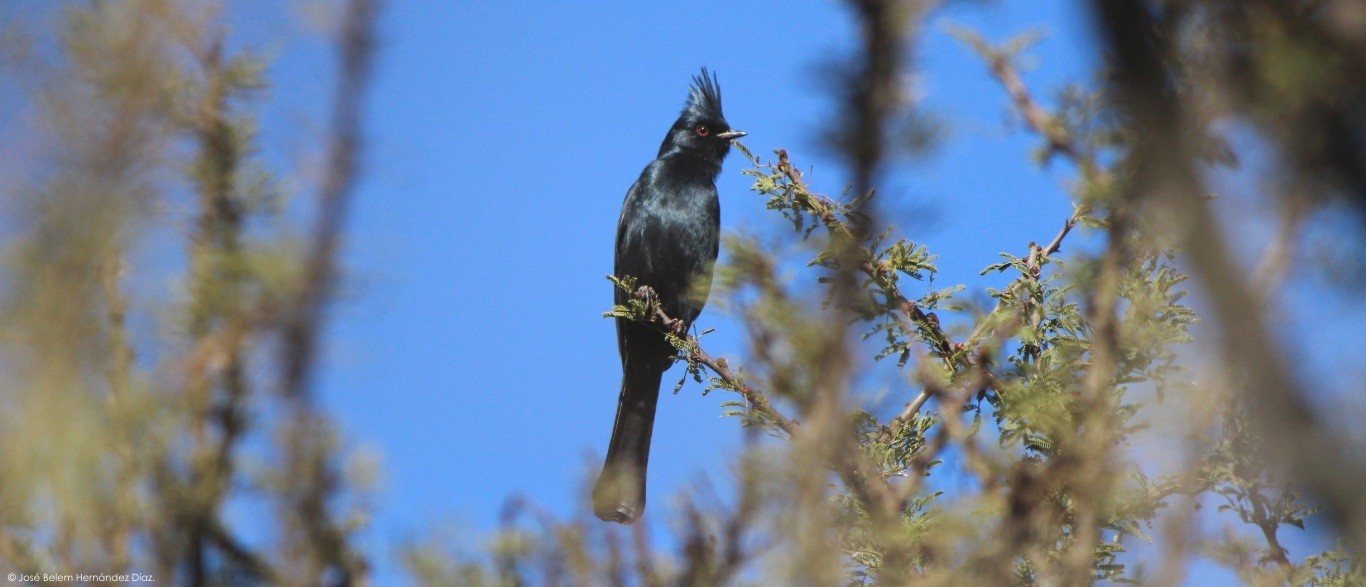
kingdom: Animalia
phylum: Chordata
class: Aves
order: Passeriformes
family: Ptilogonatidae
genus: Phainopepla
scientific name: Phainopepla nitens
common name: Phainopepla
